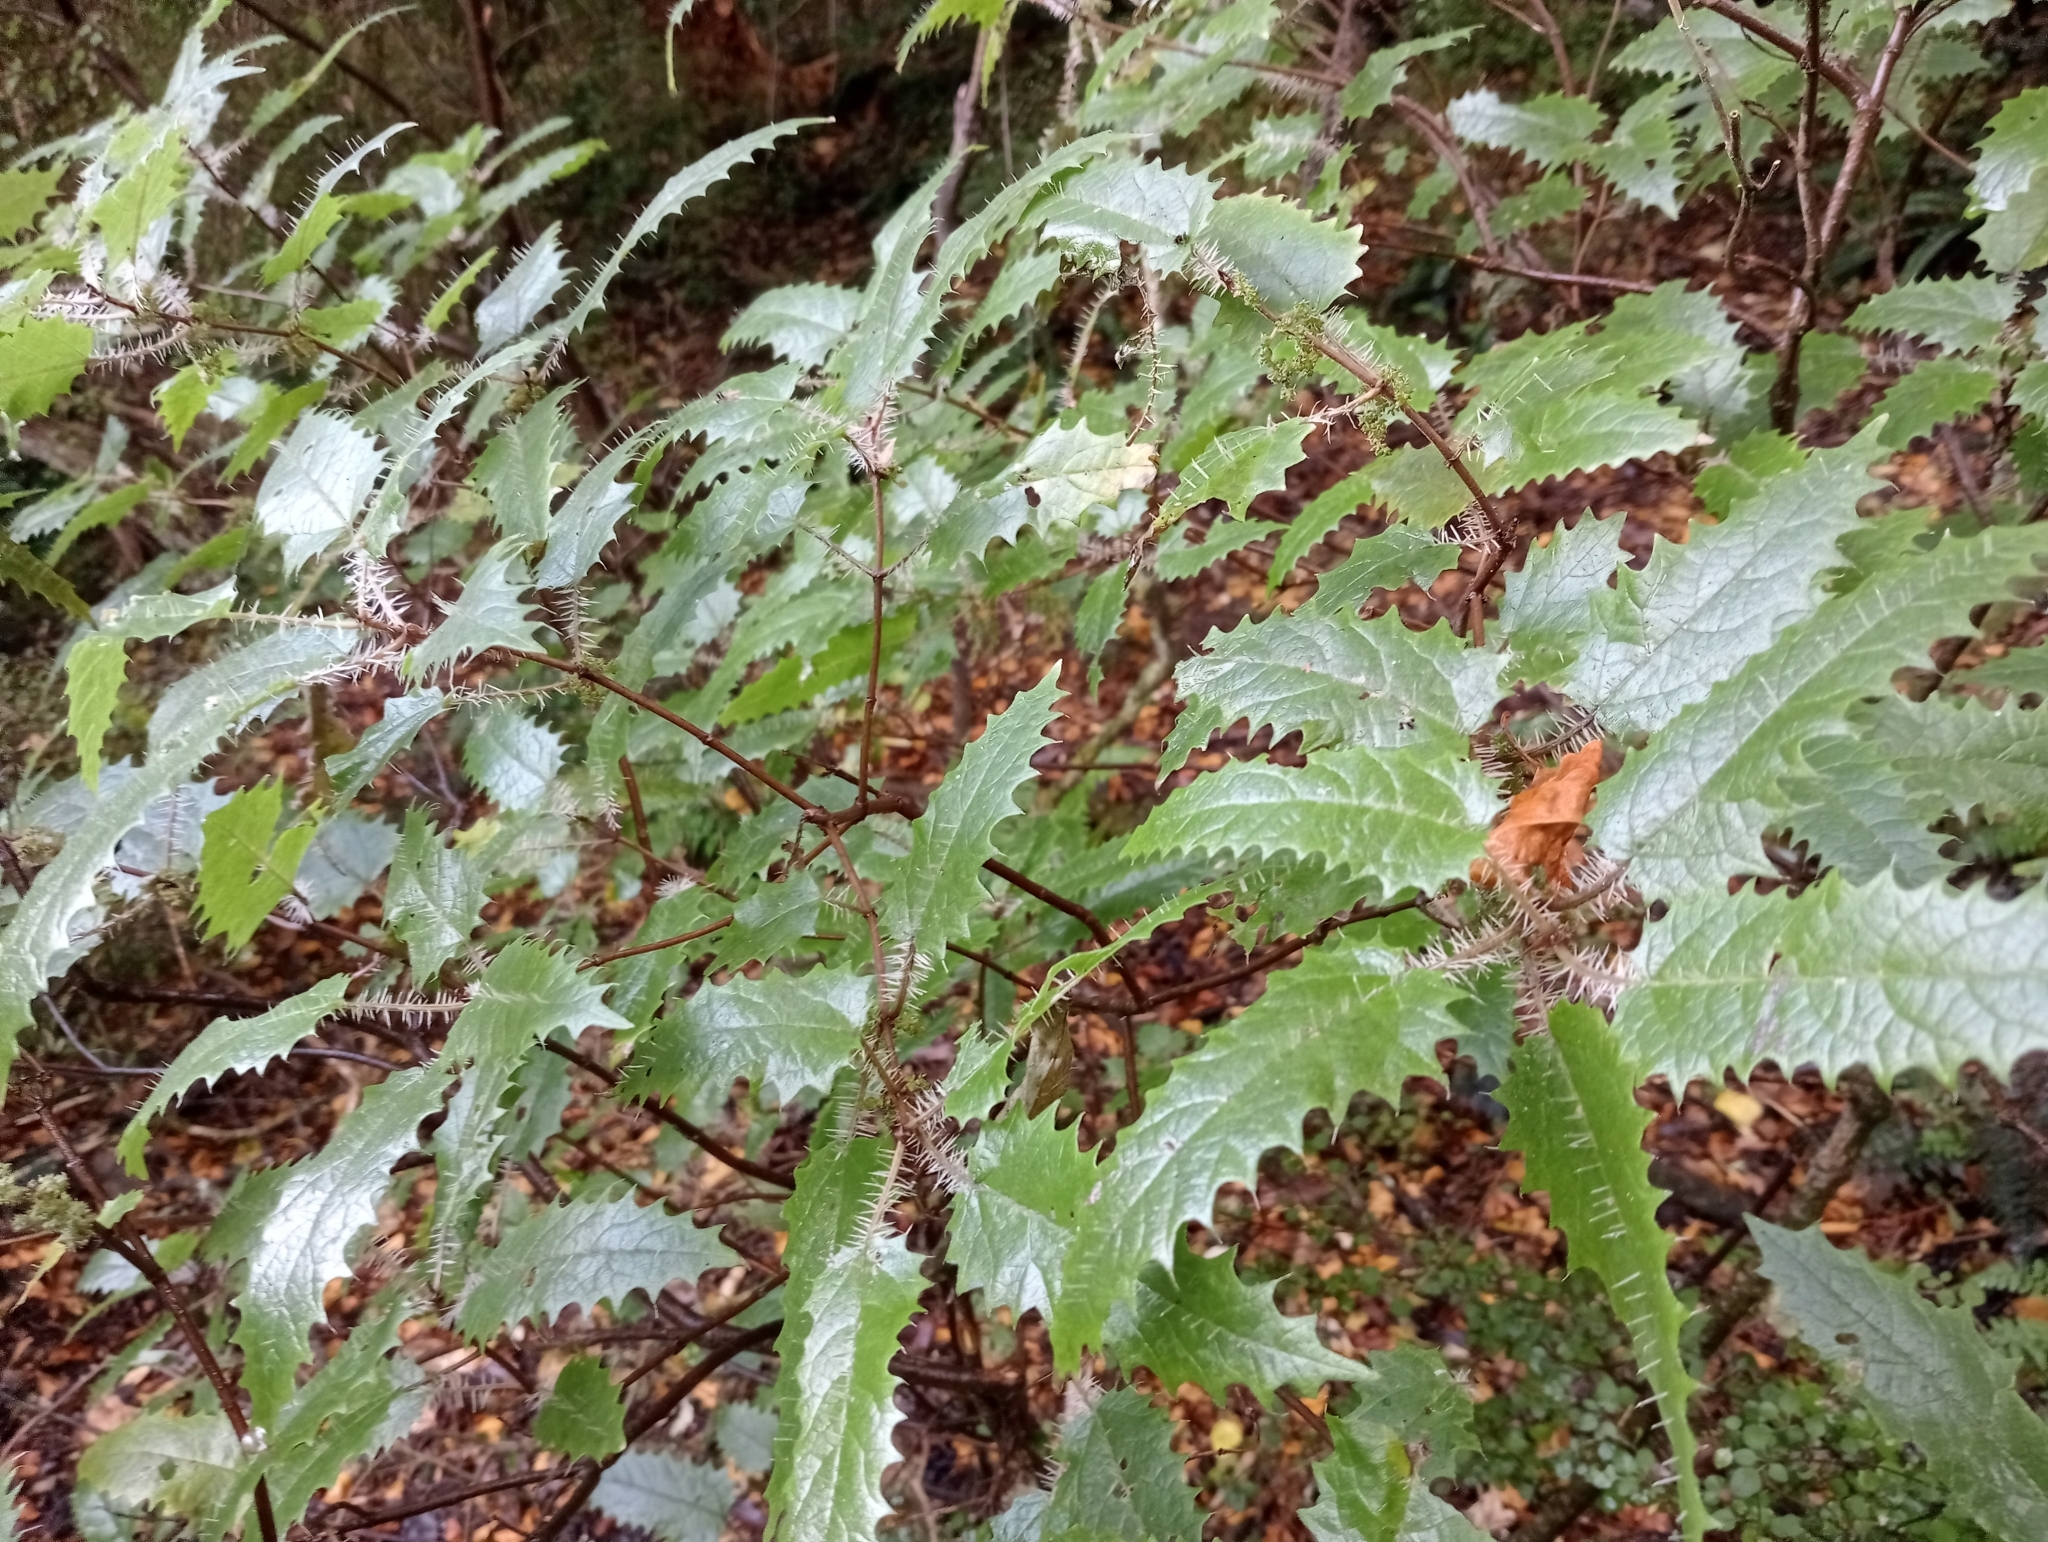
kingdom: Plantae
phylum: Tracheophyta
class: Magnoliopsida
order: Rosales
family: Urticaceae
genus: Urtica
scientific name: Urtica ferox
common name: Tree nettle
